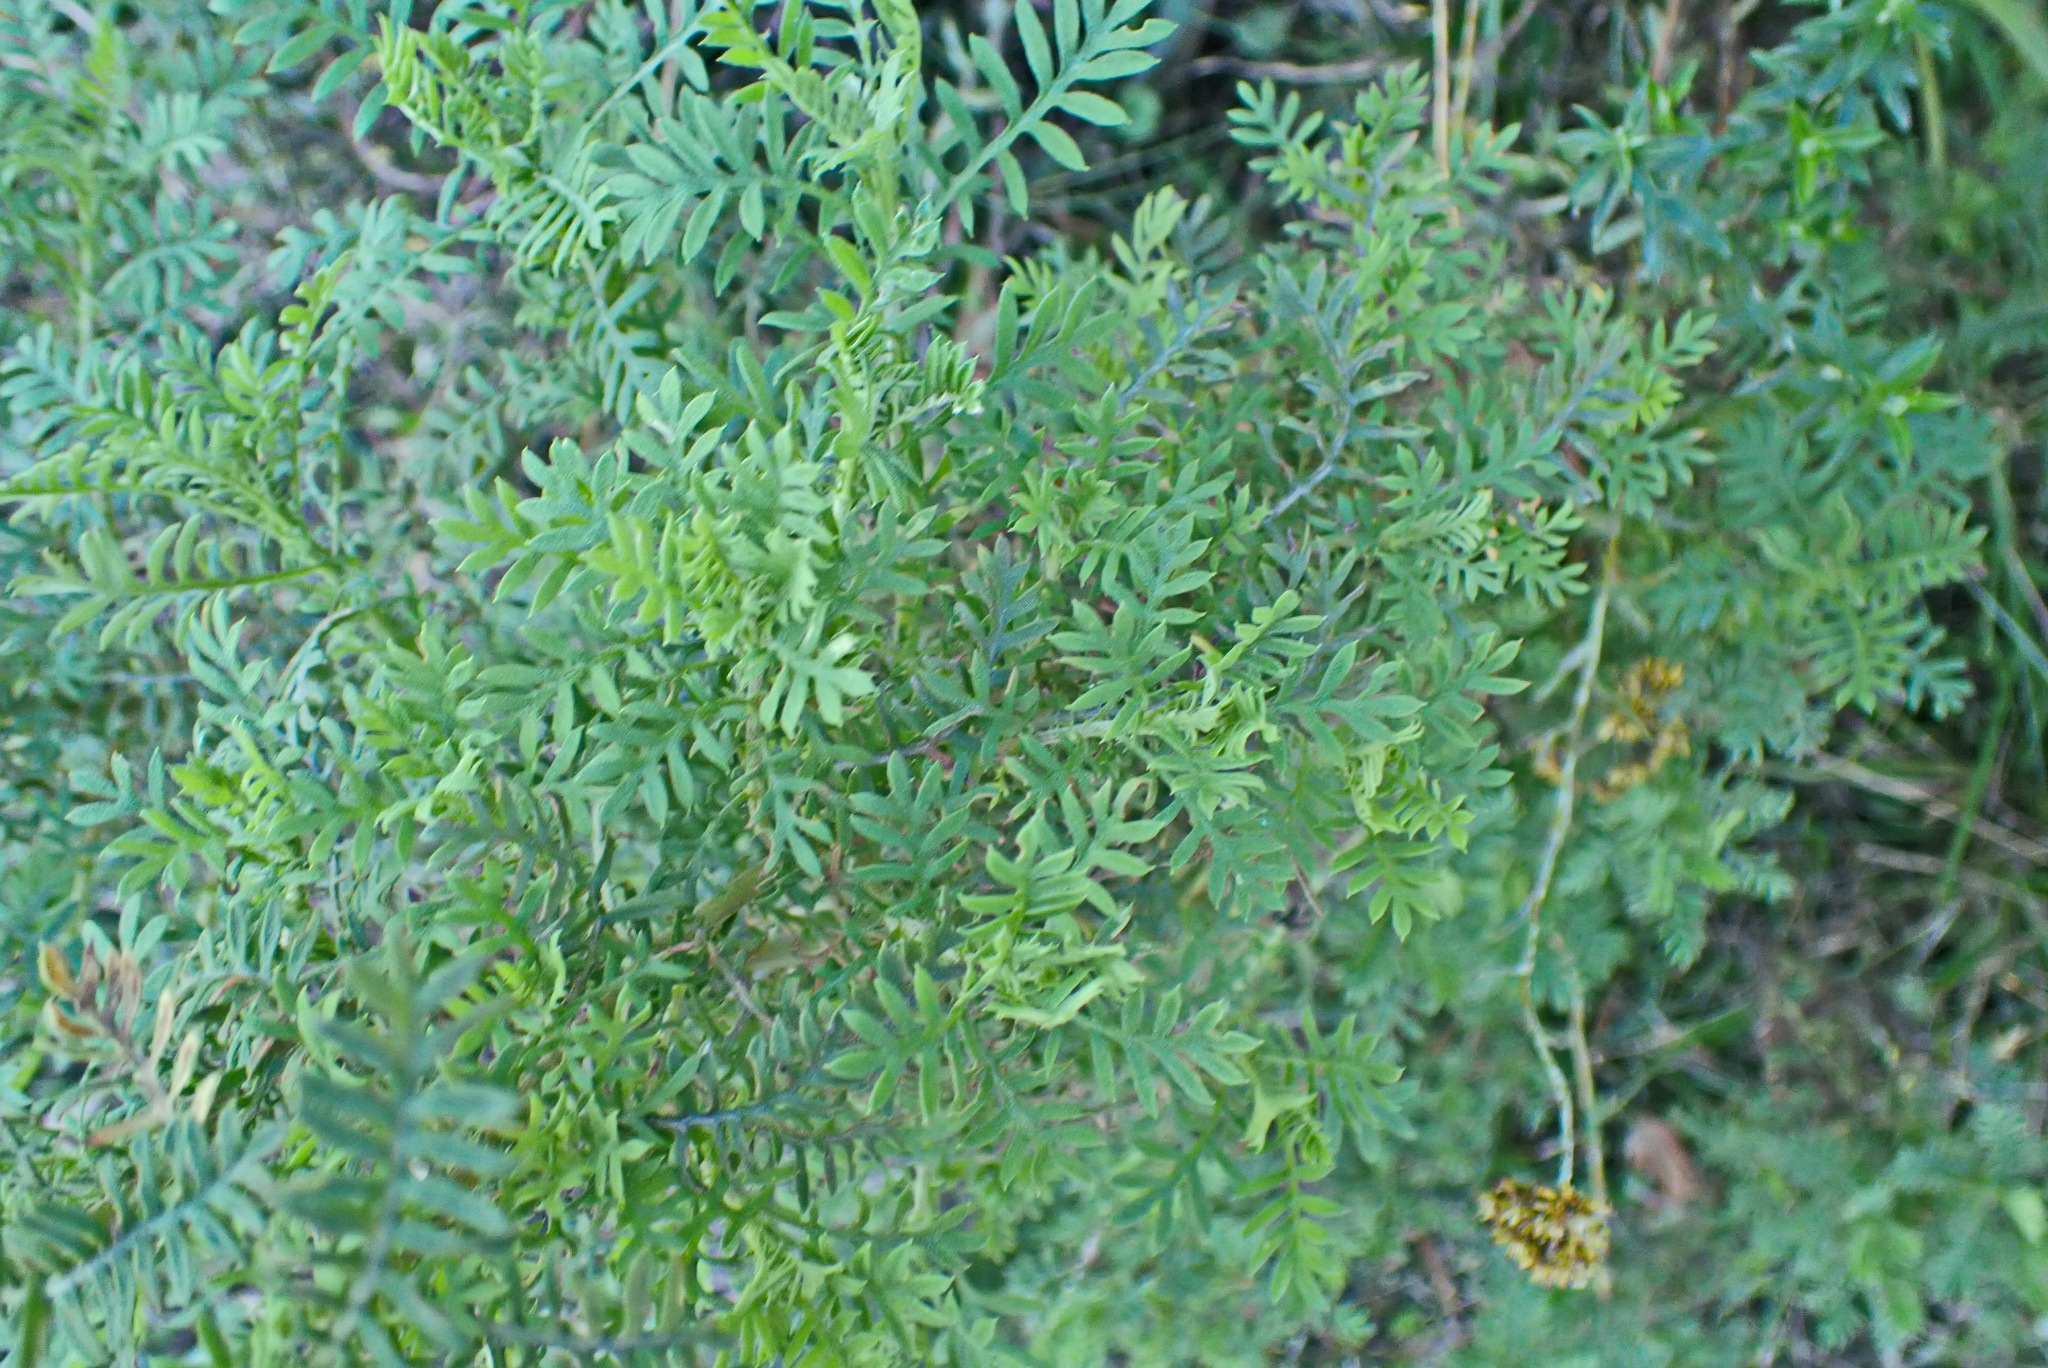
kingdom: Plantae
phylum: Tracheophyta
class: Magnoliopsida
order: Asterales
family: Asteraceae
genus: Hippia
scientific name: Hippia frutescens
